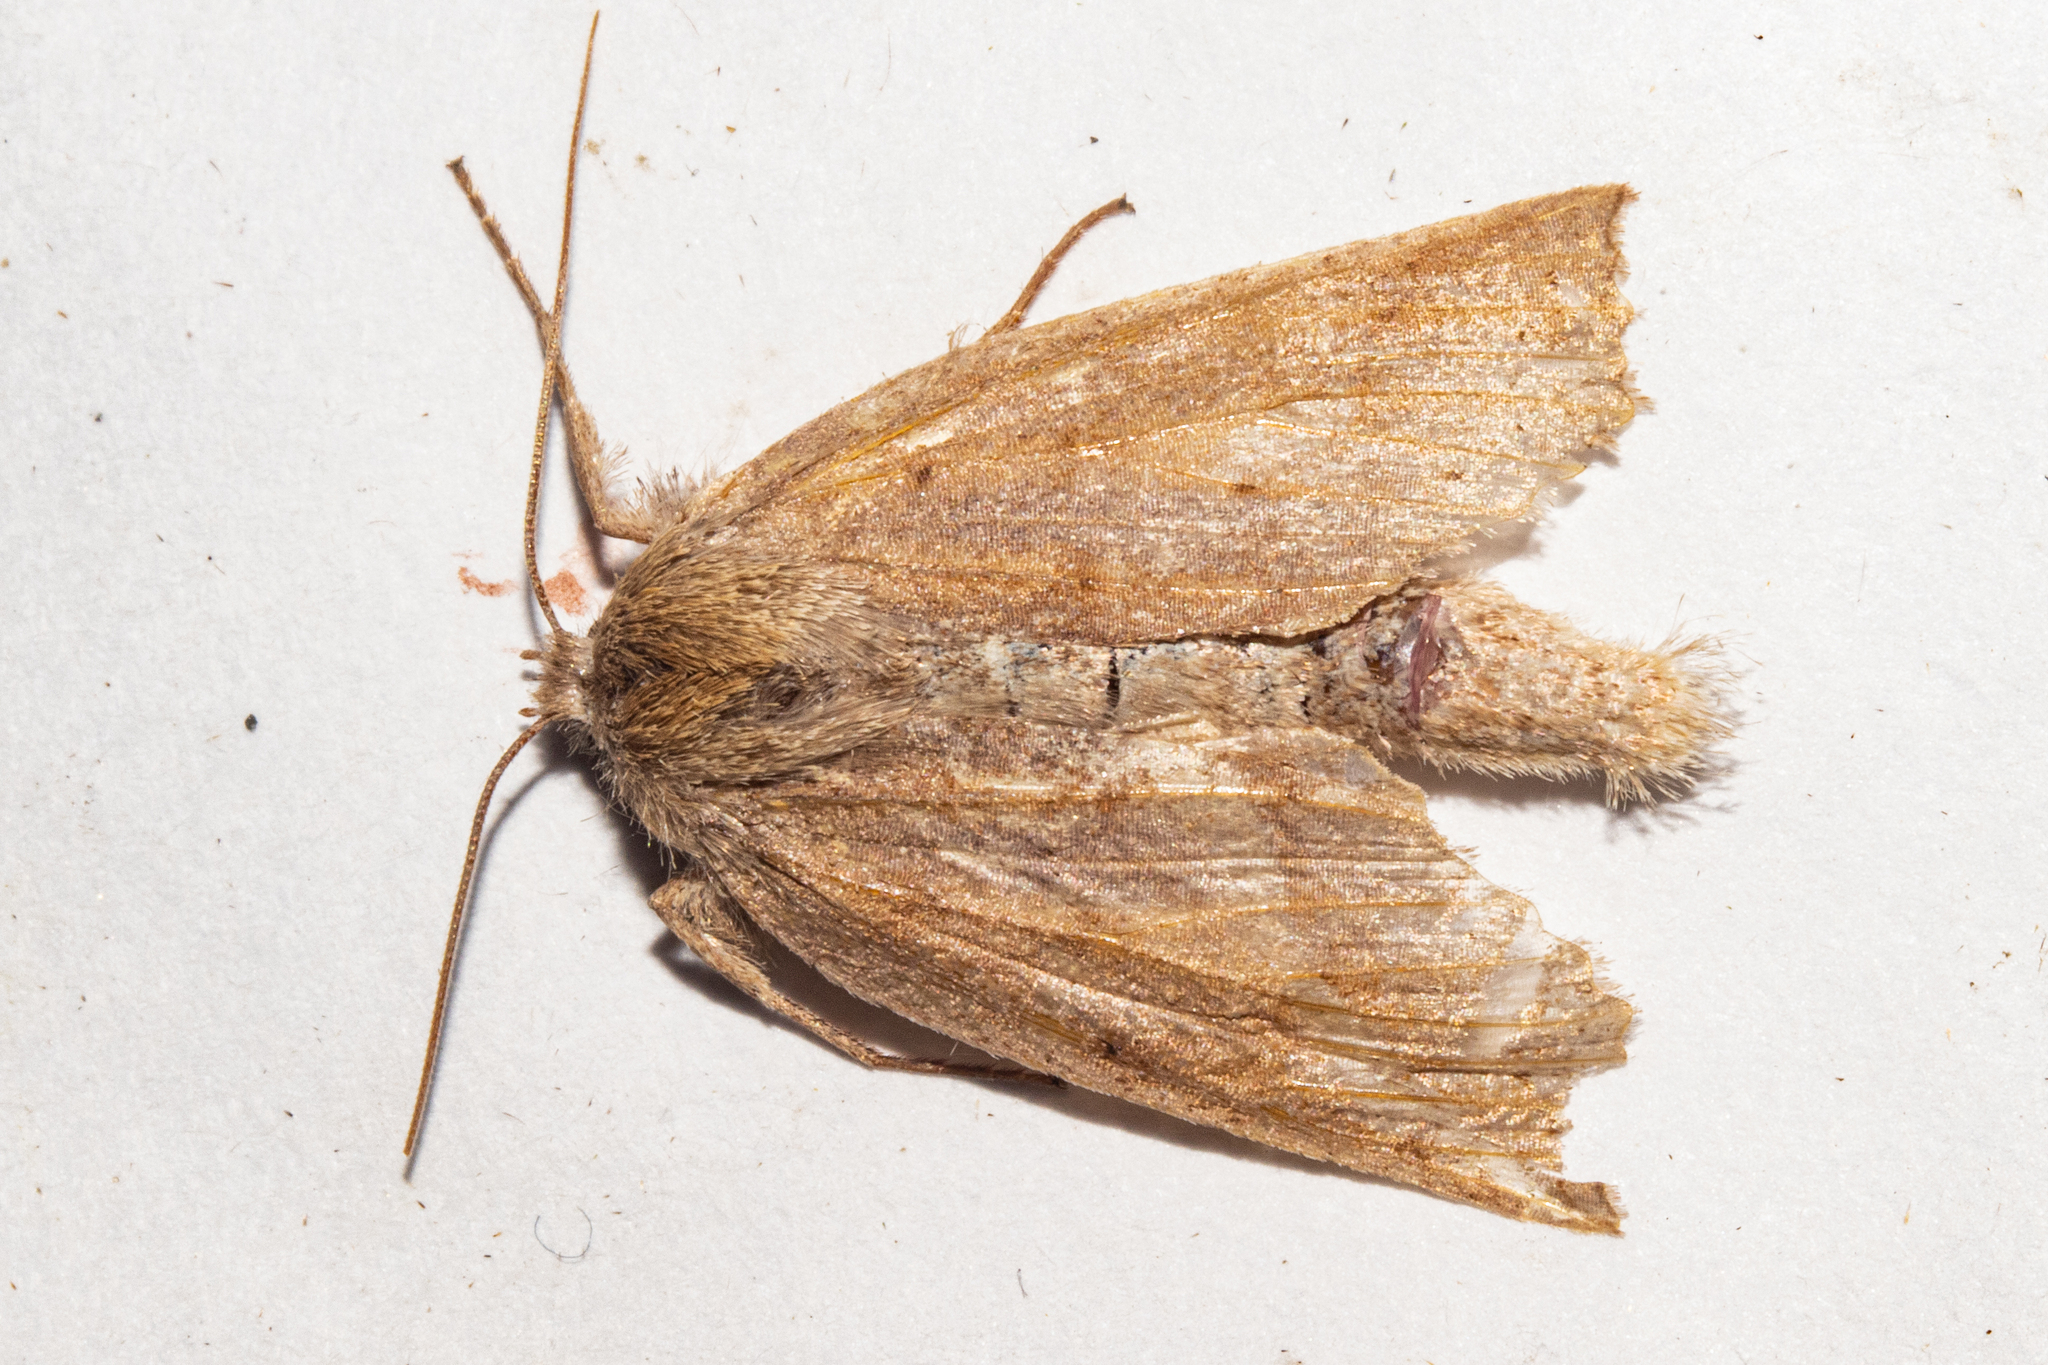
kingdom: Animalia
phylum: Arthropoda
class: Insecta
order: Lepidoptera
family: Geometridae
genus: Declana
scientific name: Declana leptomera
